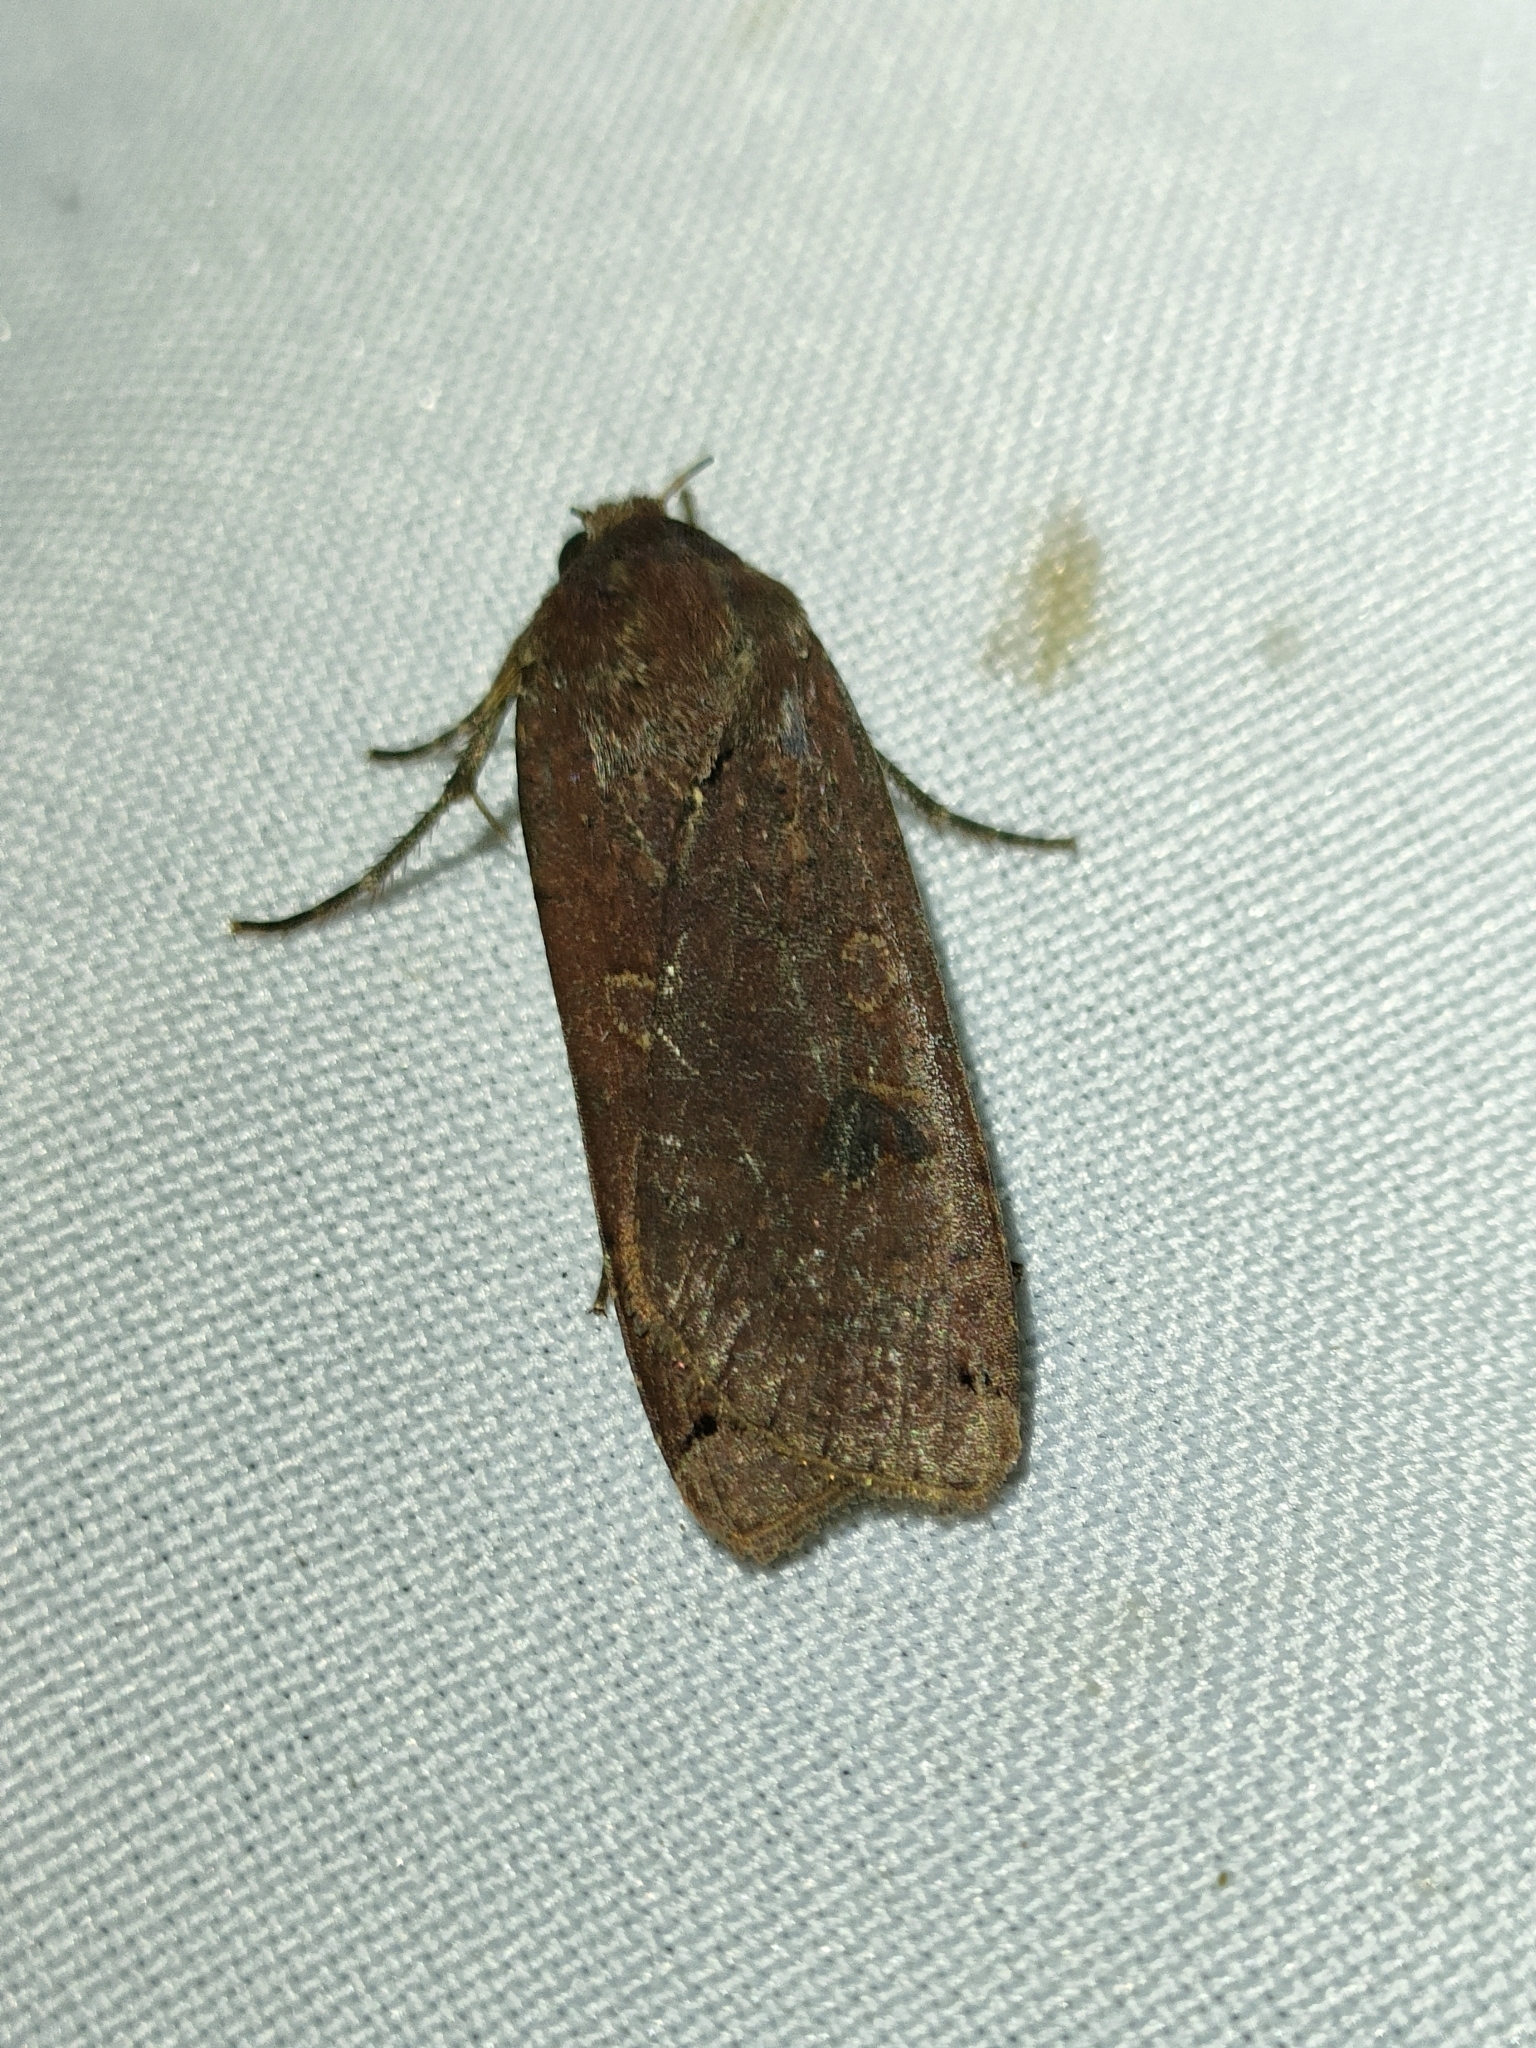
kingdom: Animalia
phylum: Arthropoda
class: Insecta
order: Lepidoptera
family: Noctuidae
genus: Noctua
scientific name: Noctua pronuba
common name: Large yellow underwing
